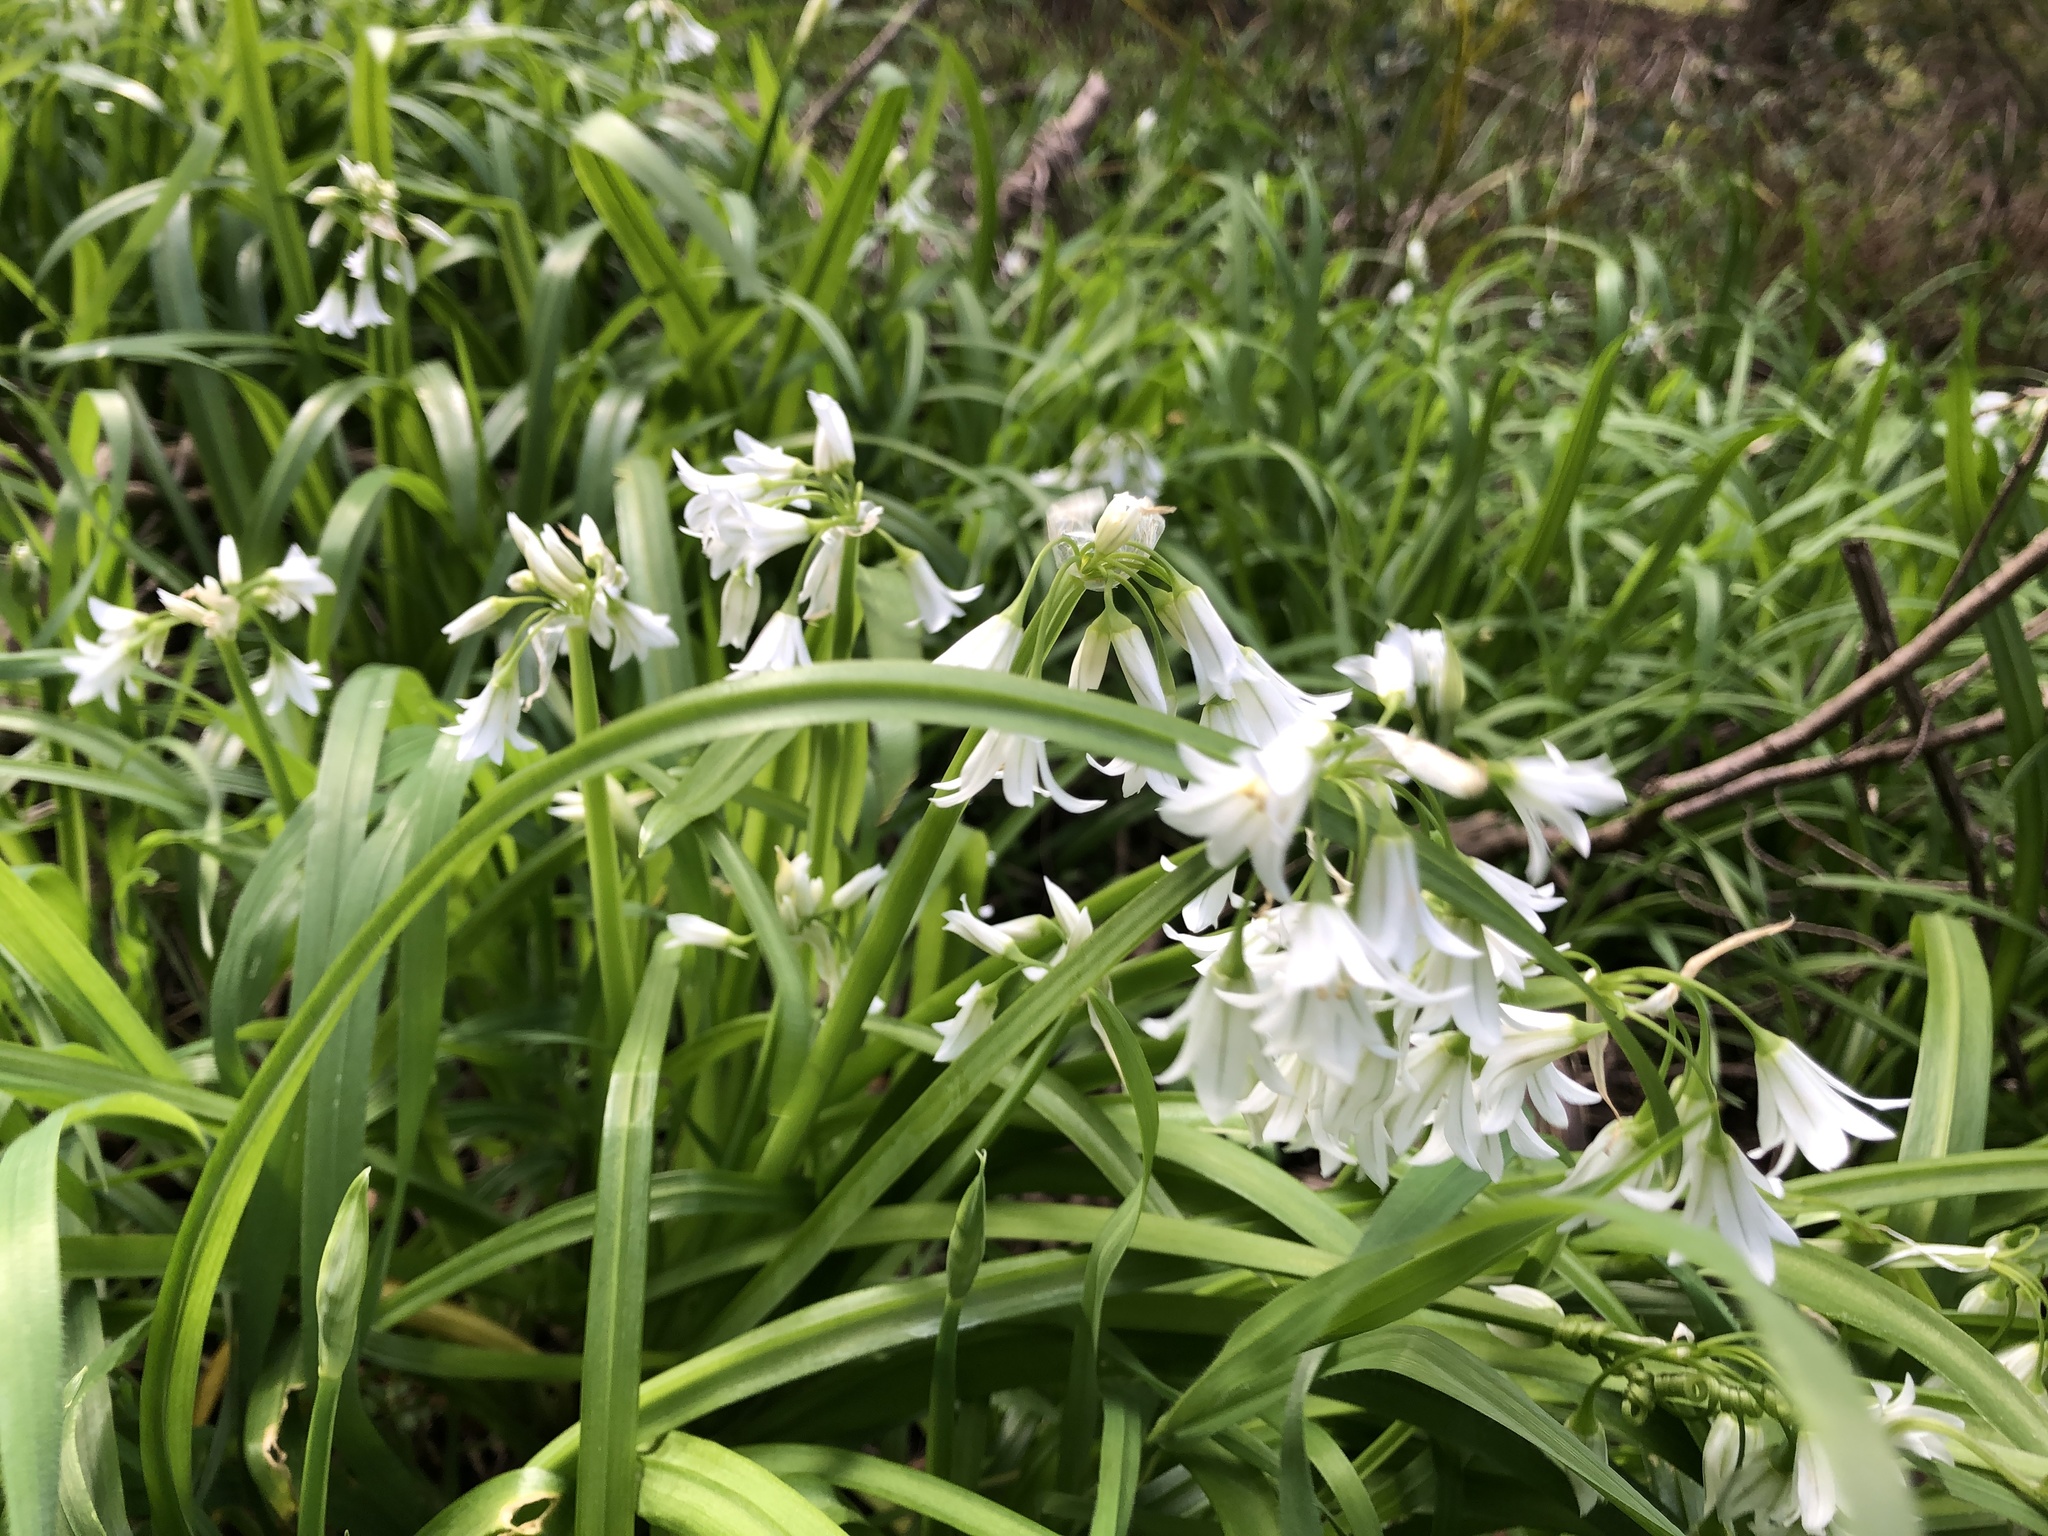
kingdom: Plantae
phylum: Tracheophyta
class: Liliopsida
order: Asparagales
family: Amaryllidaceae
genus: Allium
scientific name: Allium triquetrum
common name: Three-cornered garlic
